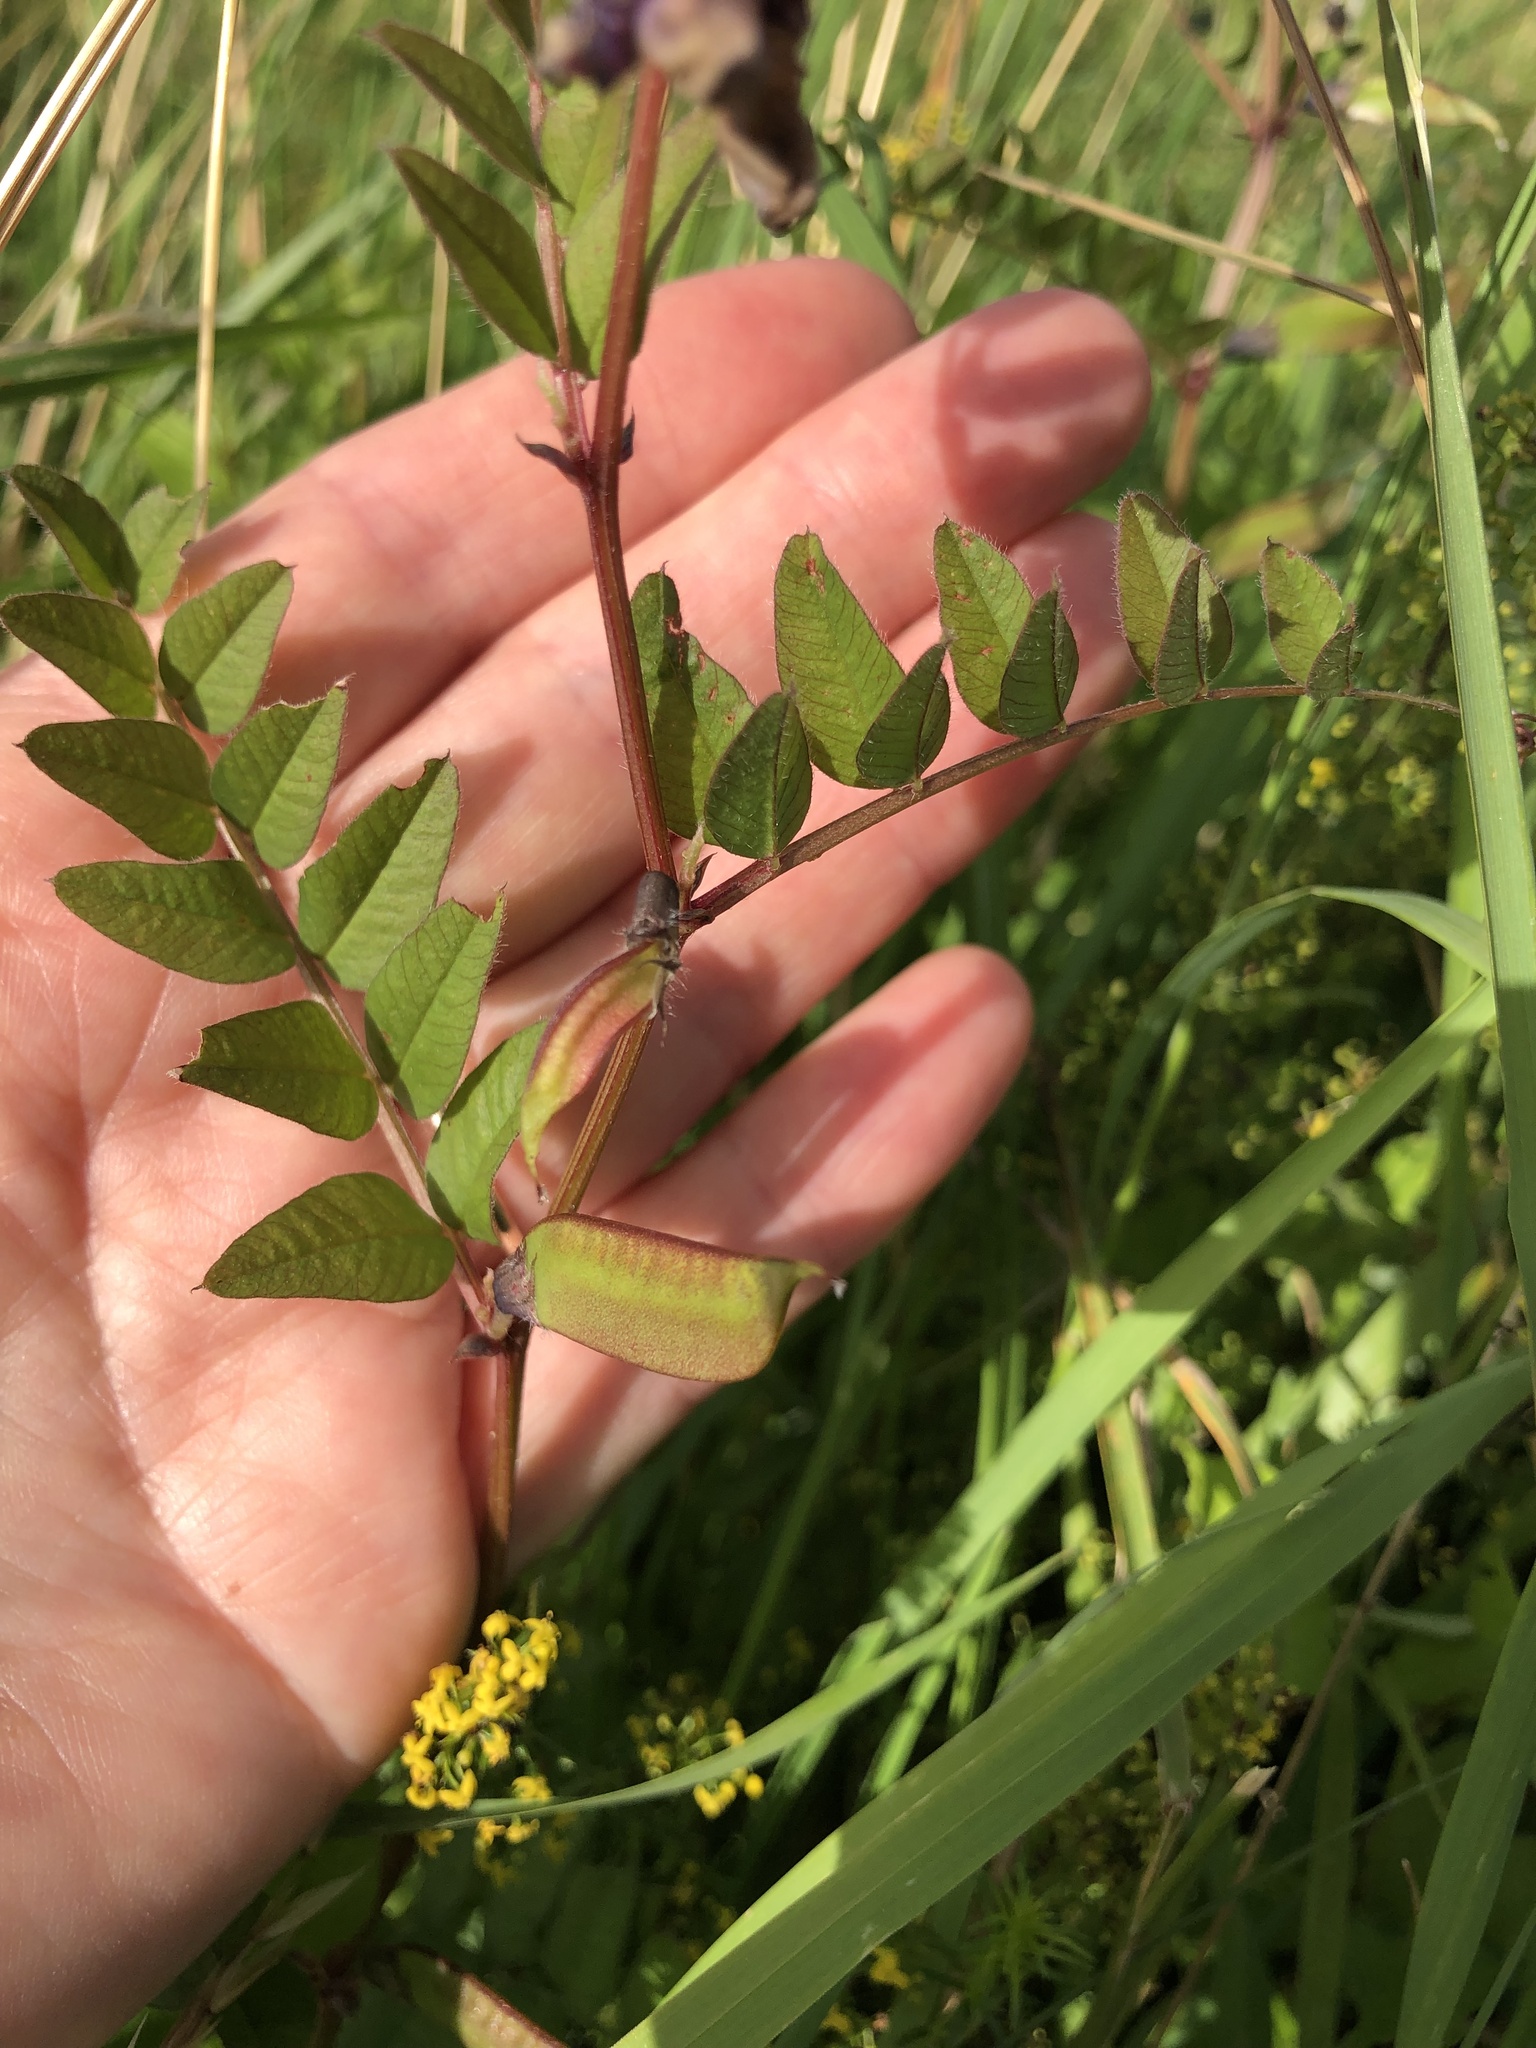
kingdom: Plantae
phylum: Tracheophyta
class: Magnoliopsida
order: Fabales
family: Fabaceae
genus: Vicia
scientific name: Vicia sepium
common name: Bush vetch
